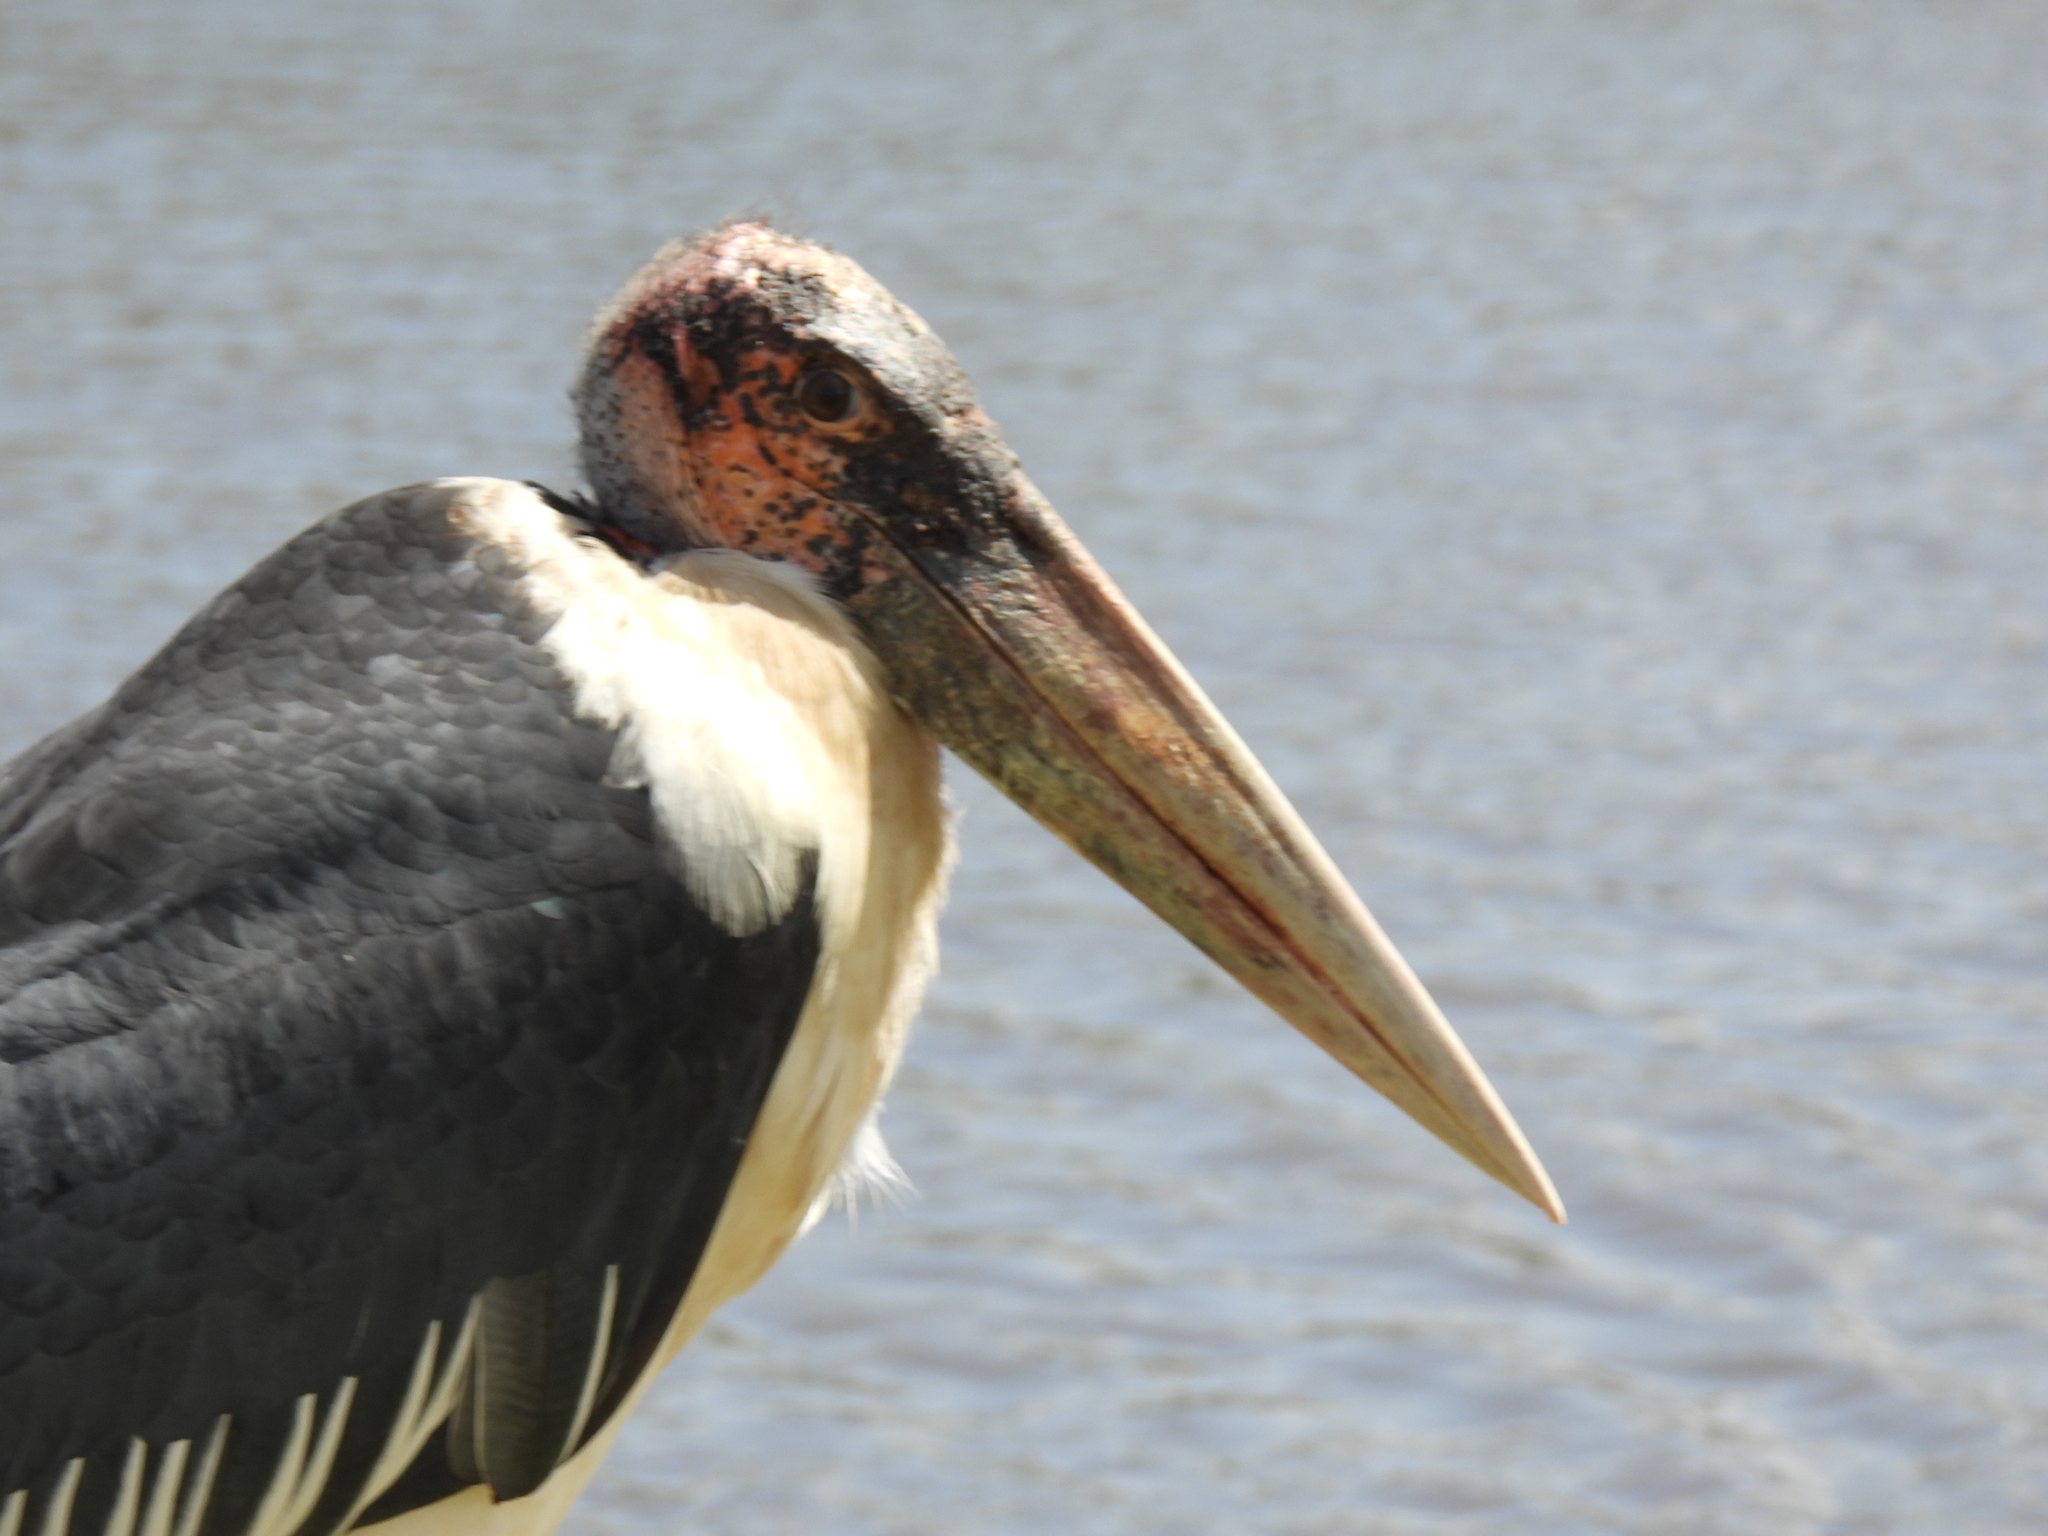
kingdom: Animalia
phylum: Chordata
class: Aves
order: Ciconiiformes
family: Ciconiidae
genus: Leptoptilos
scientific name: Leptoptilos crumenifer
